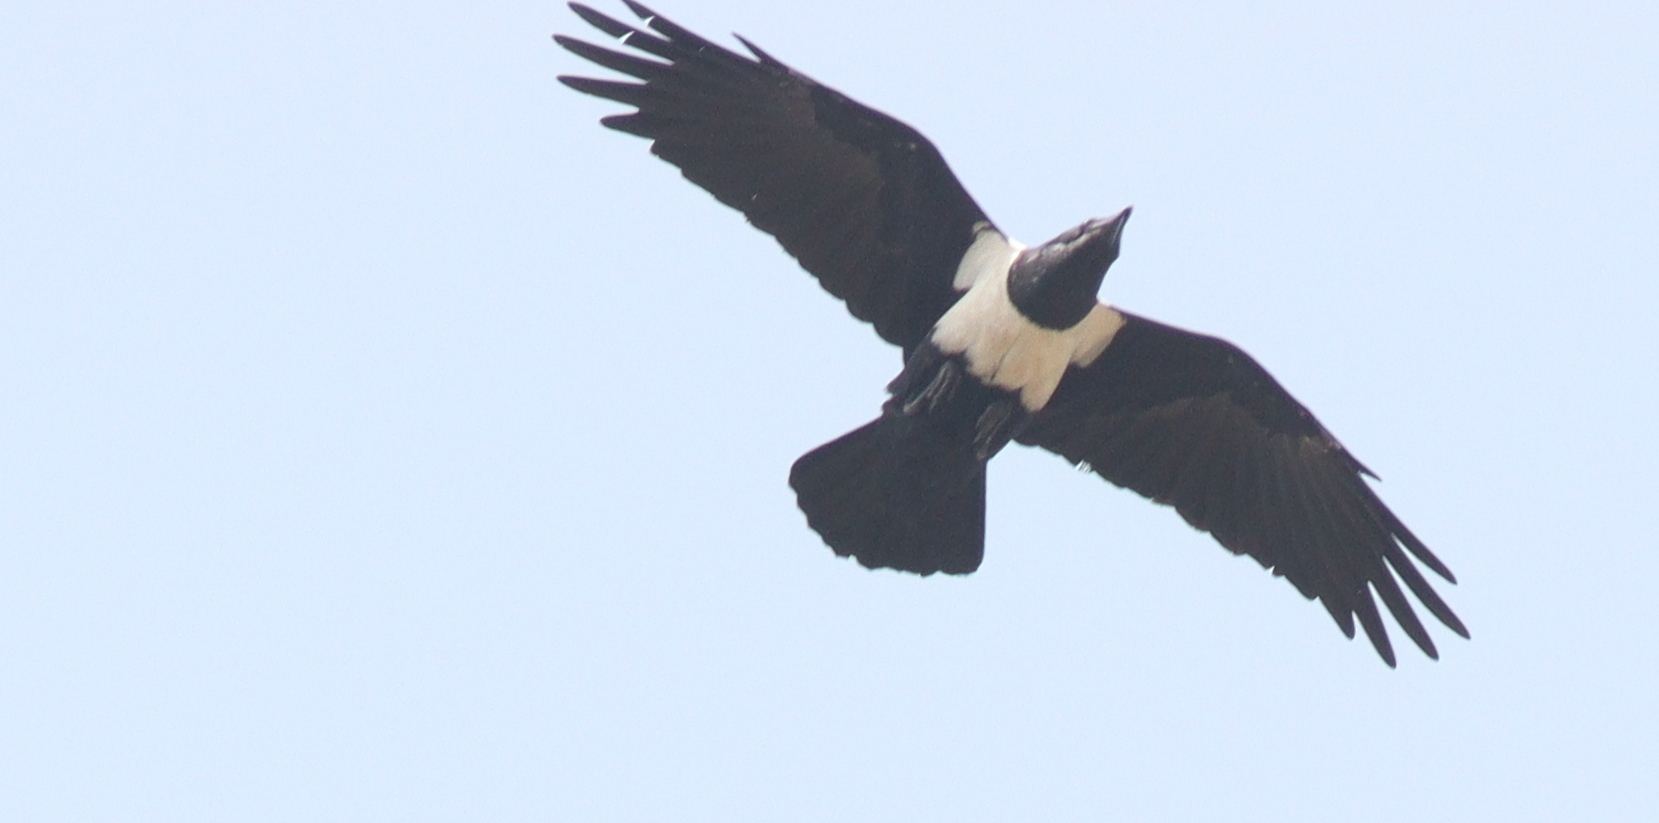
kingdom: Animalia
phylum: Chordata
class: Aves
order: Passeriformes
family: Corvidae
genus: Corvus
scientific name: Corvus albus
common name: Pied crow
